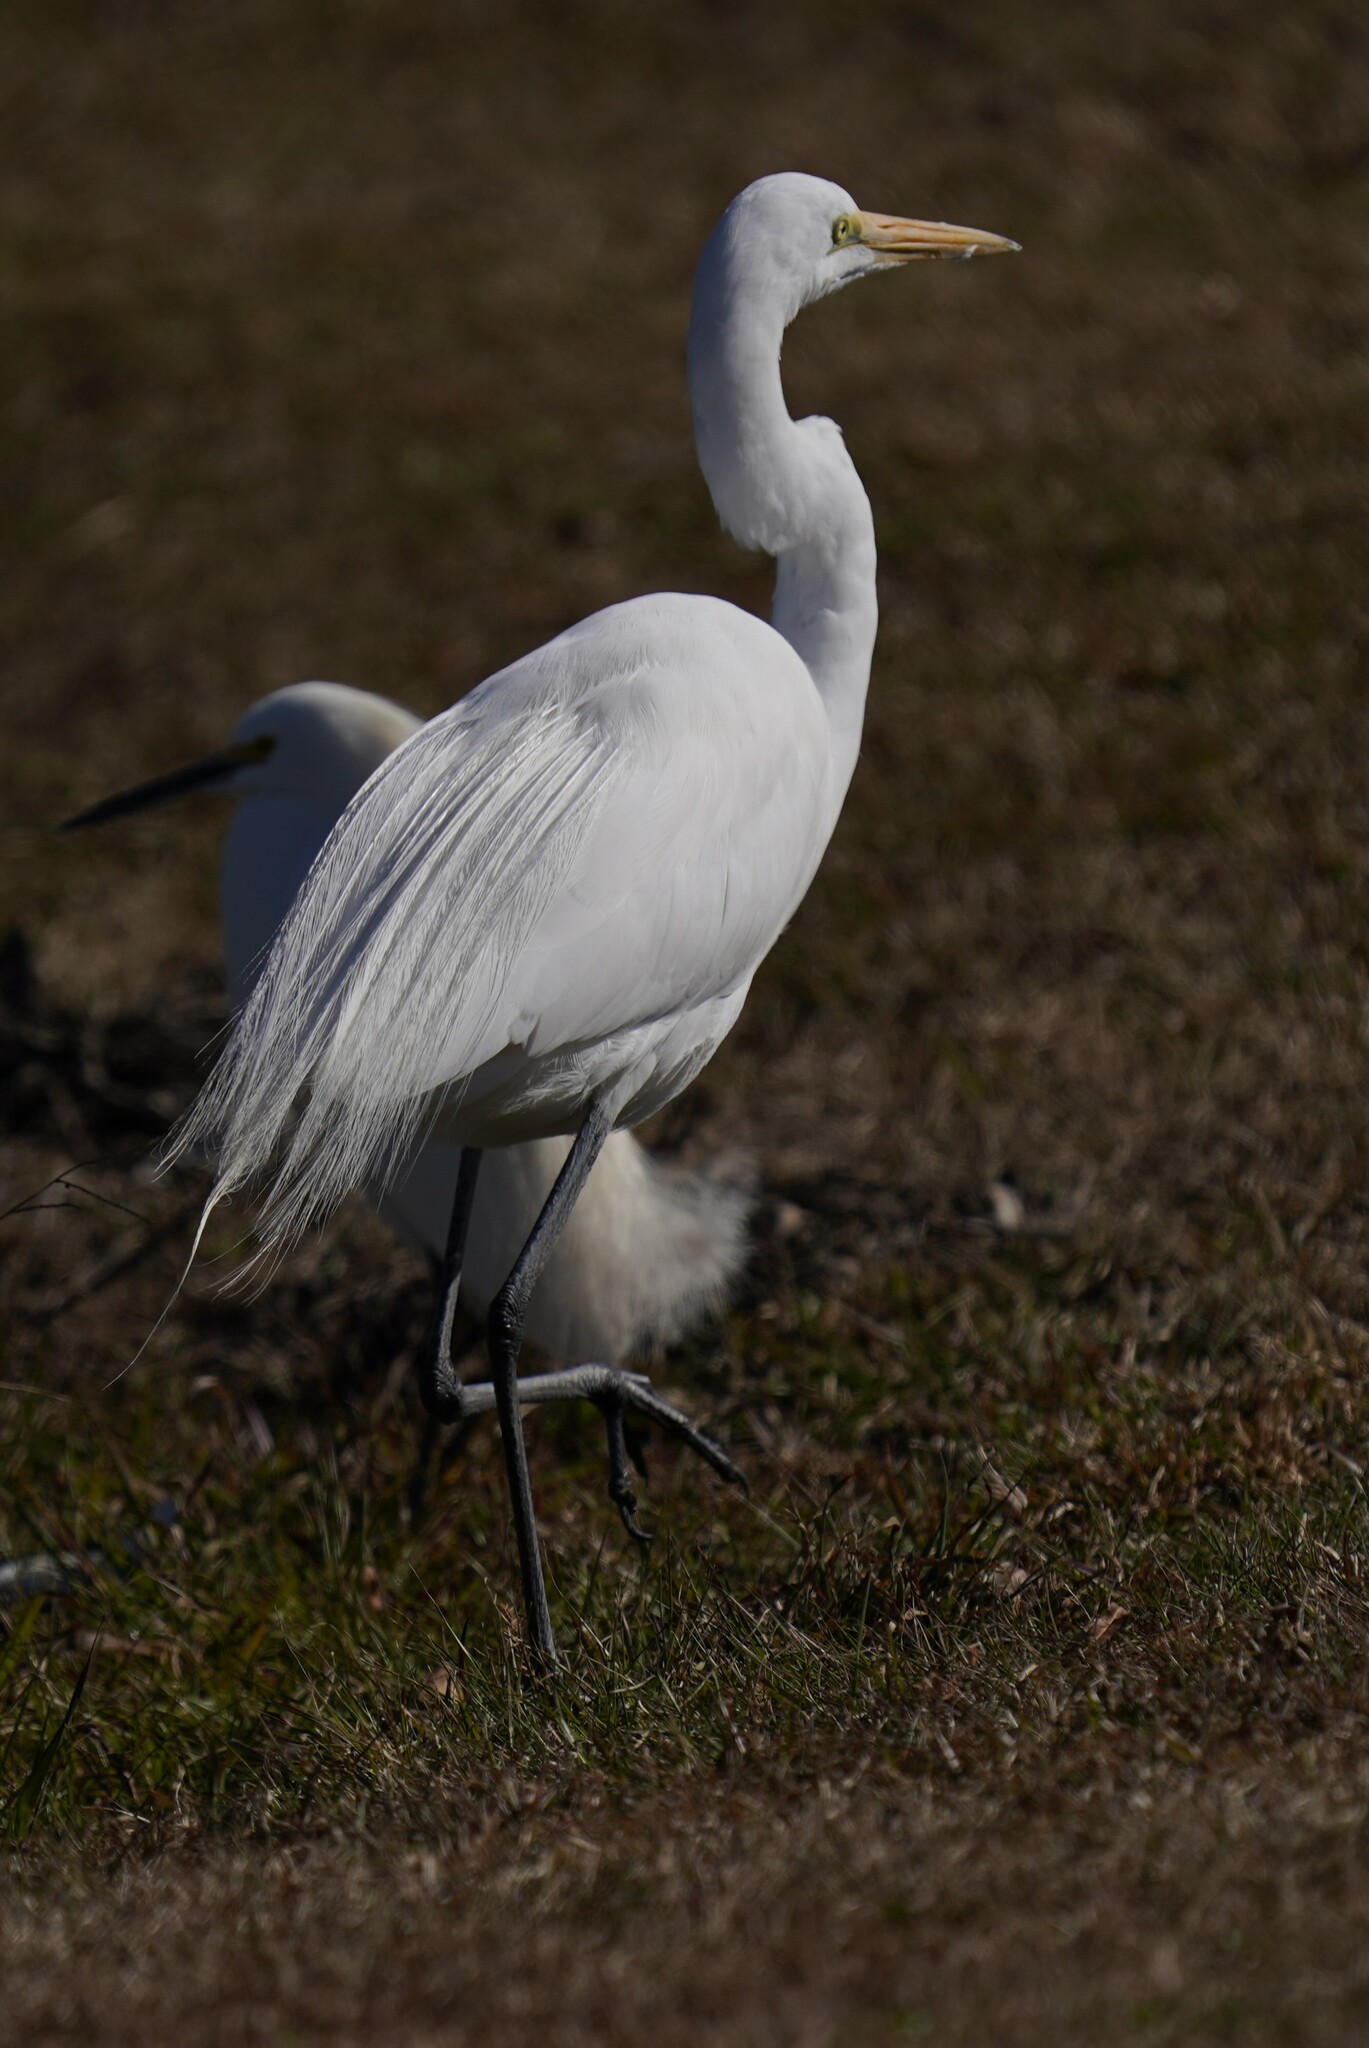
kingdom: Animalia
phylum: Chordata
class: Aves
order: Pelecaniformes
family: Ardeidae
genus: Ardea
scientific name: Ardea alba
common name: Great egret
